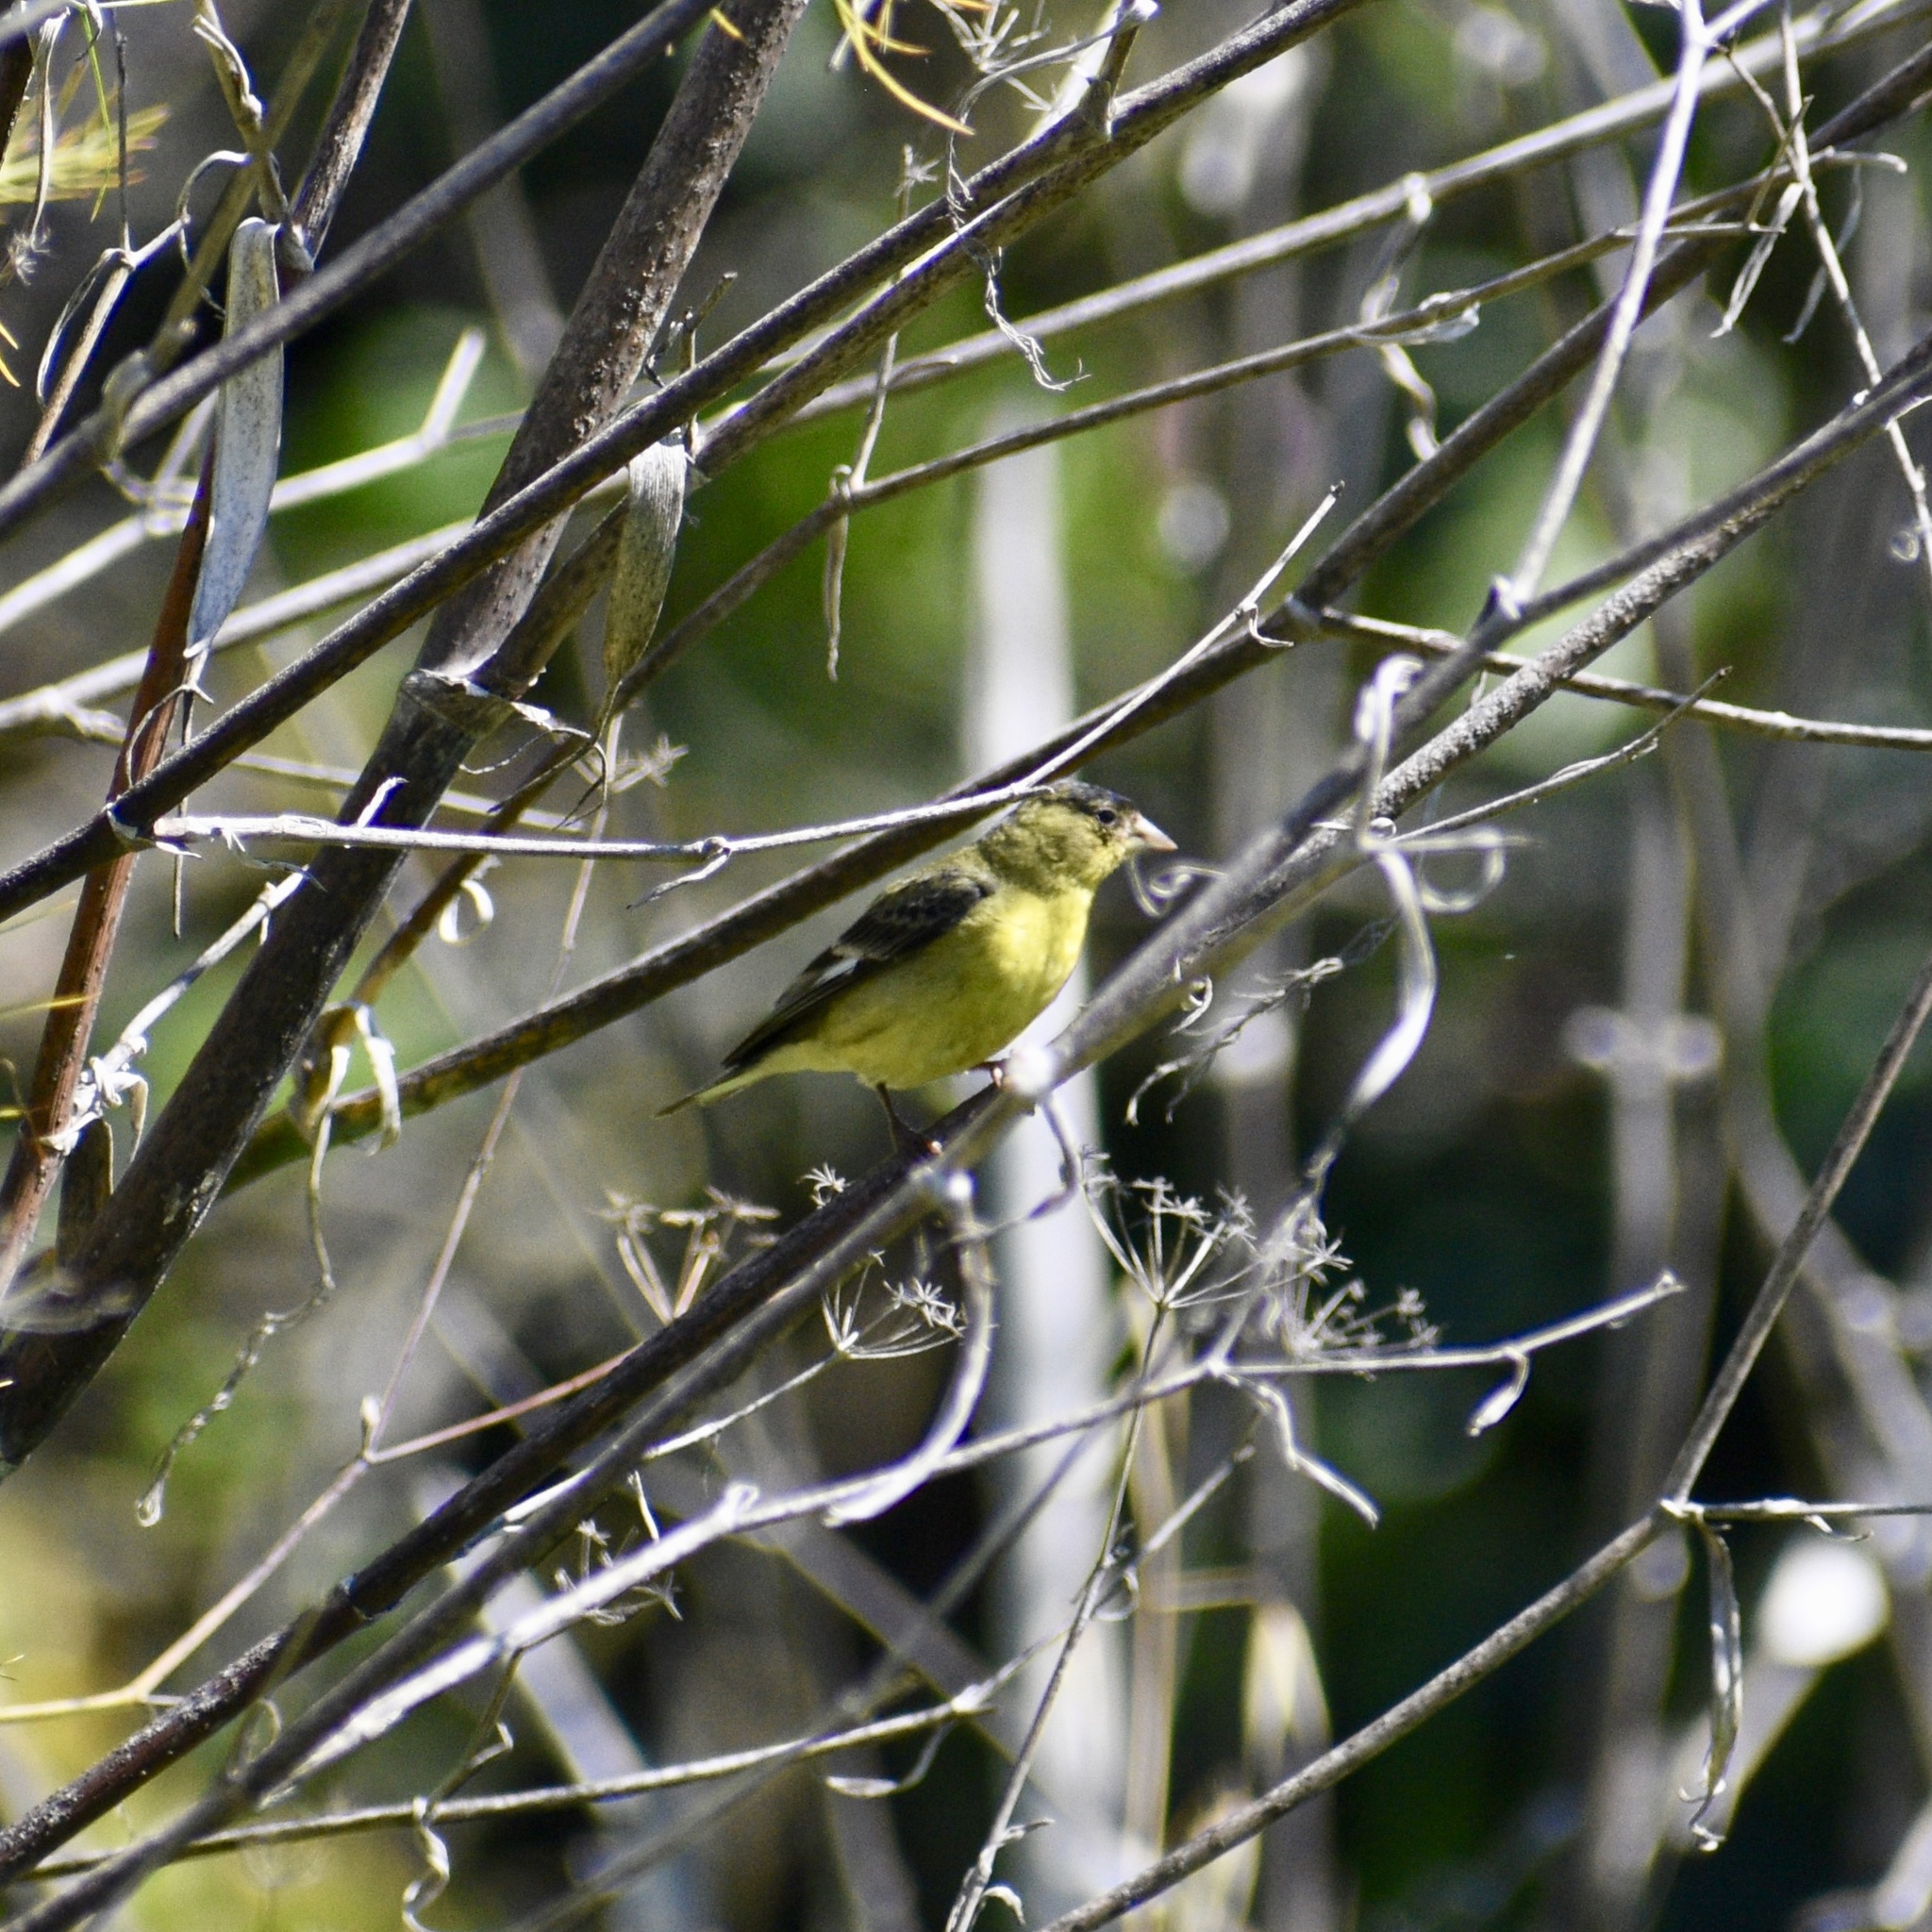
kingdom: Animalia
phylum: Chordata
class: Aves
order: Passeriformes
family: Fringillidae
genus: Spinus
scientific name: Spinus psaltria
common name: Lesser goldfinch
